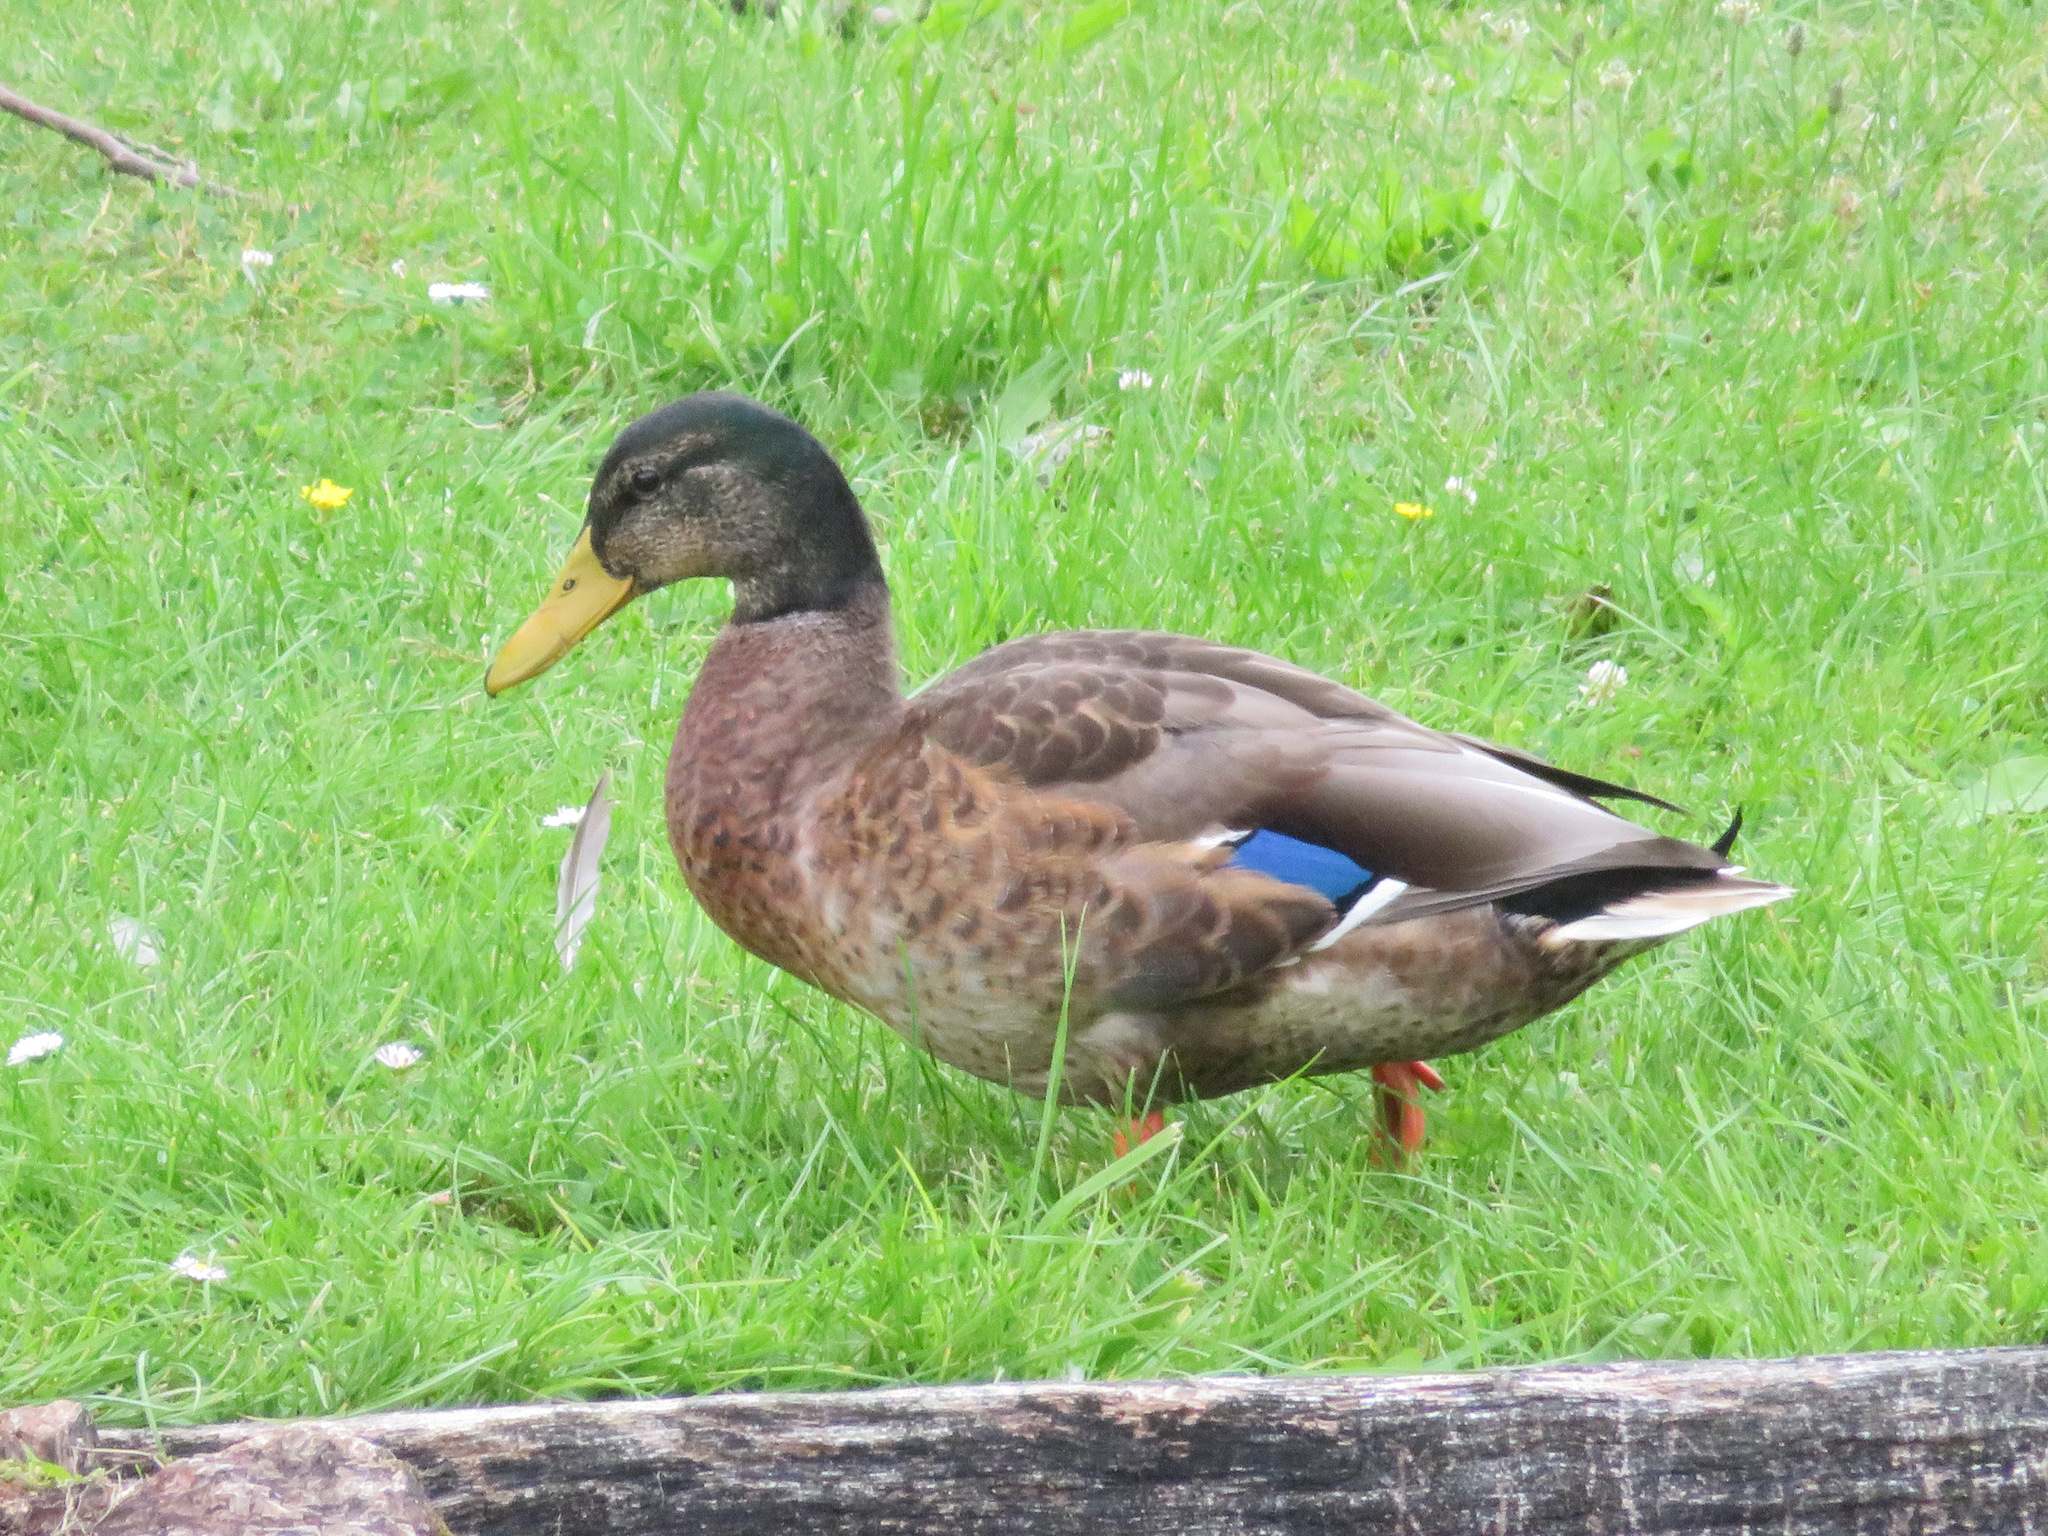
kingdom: Animalia
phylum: Chordata
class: Aves
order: Anseriformes
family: Anatidae
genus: Anas
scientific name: Anas platyrhynchos
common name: Mallard
